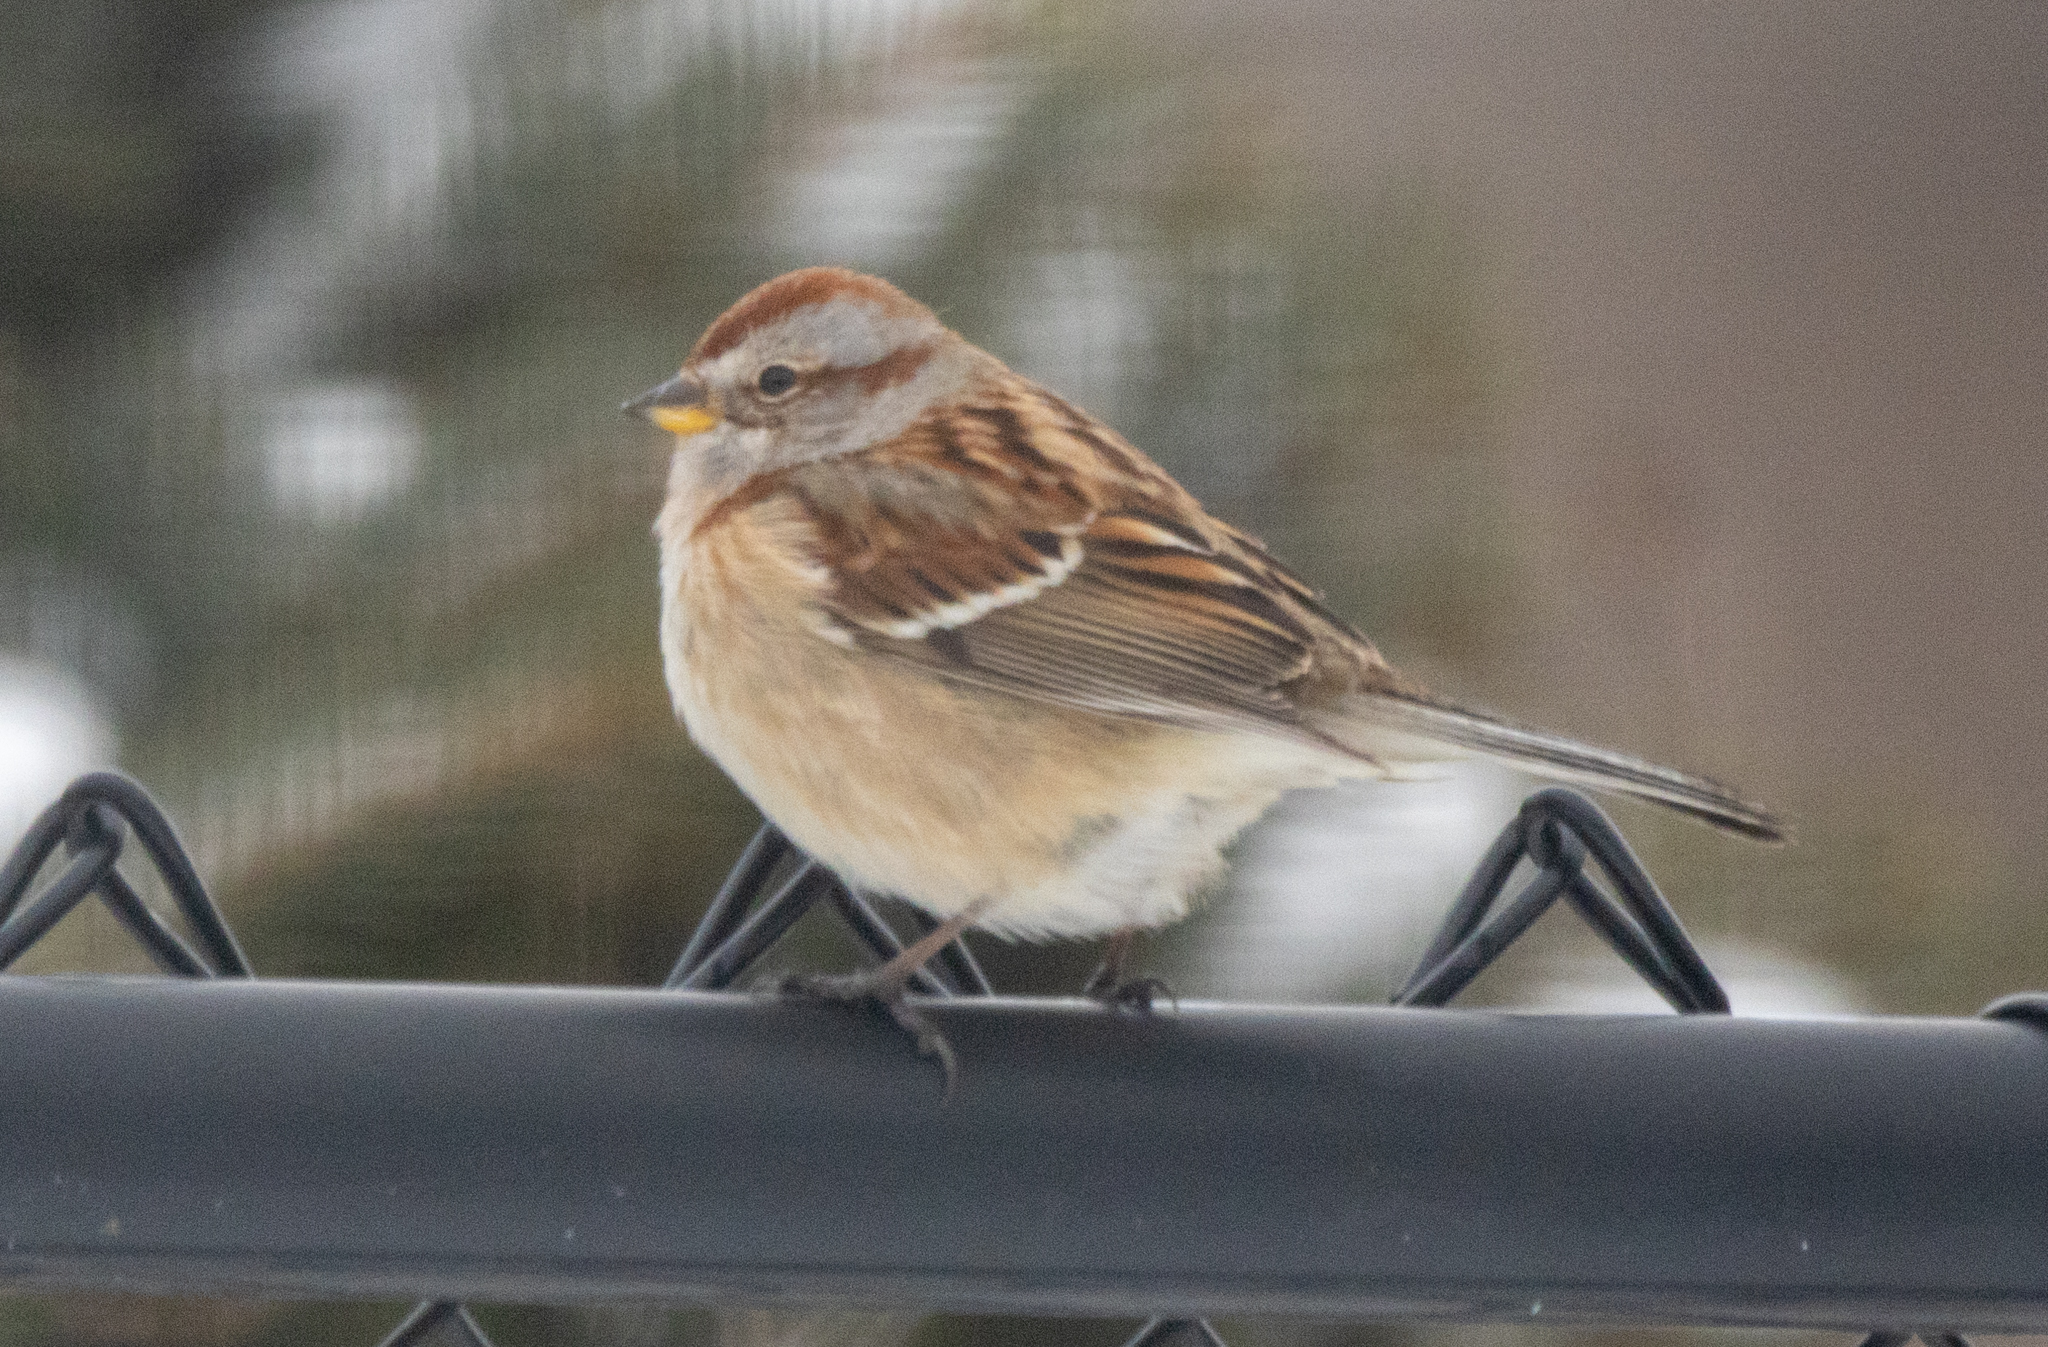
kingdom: Animalia
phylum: Chordata
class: Aves
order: Passeriformes
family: Passerellidae
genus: Spizelloides
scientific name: Spizelloides arborea
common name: American tree sparrow
